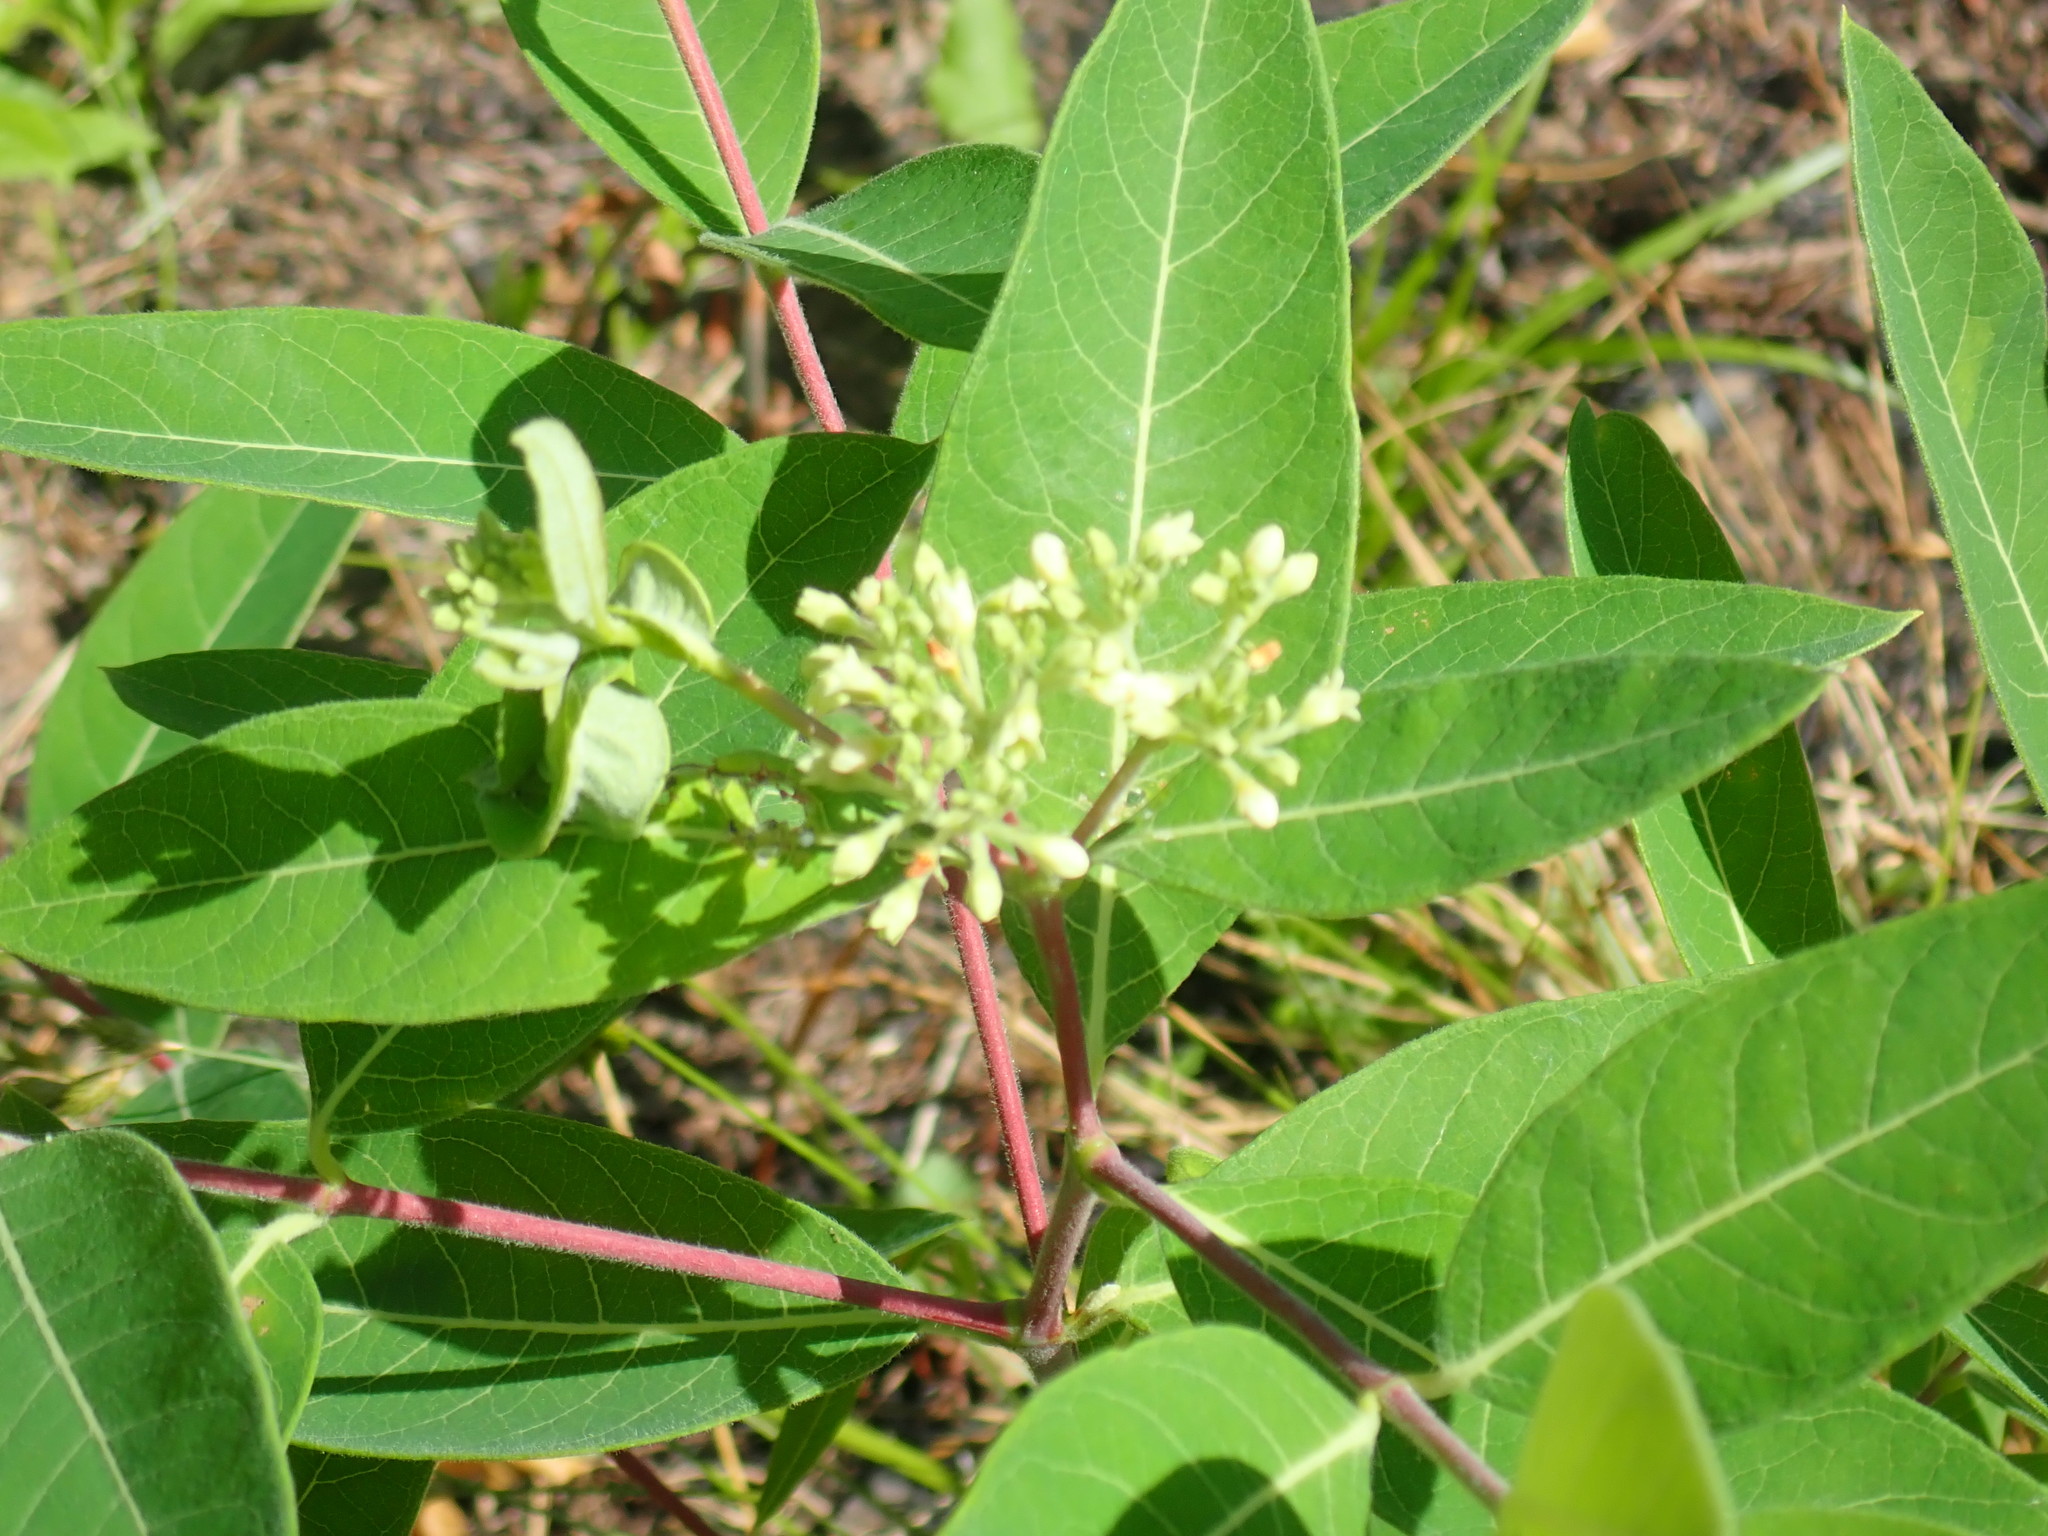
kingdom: Plantae
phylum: Tracheophyta
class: Magnoliopsida
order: Gentianales
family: Apocynaceae
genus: Apocynum
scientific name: Apocynum cannabinum
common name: Hemp dogbane
